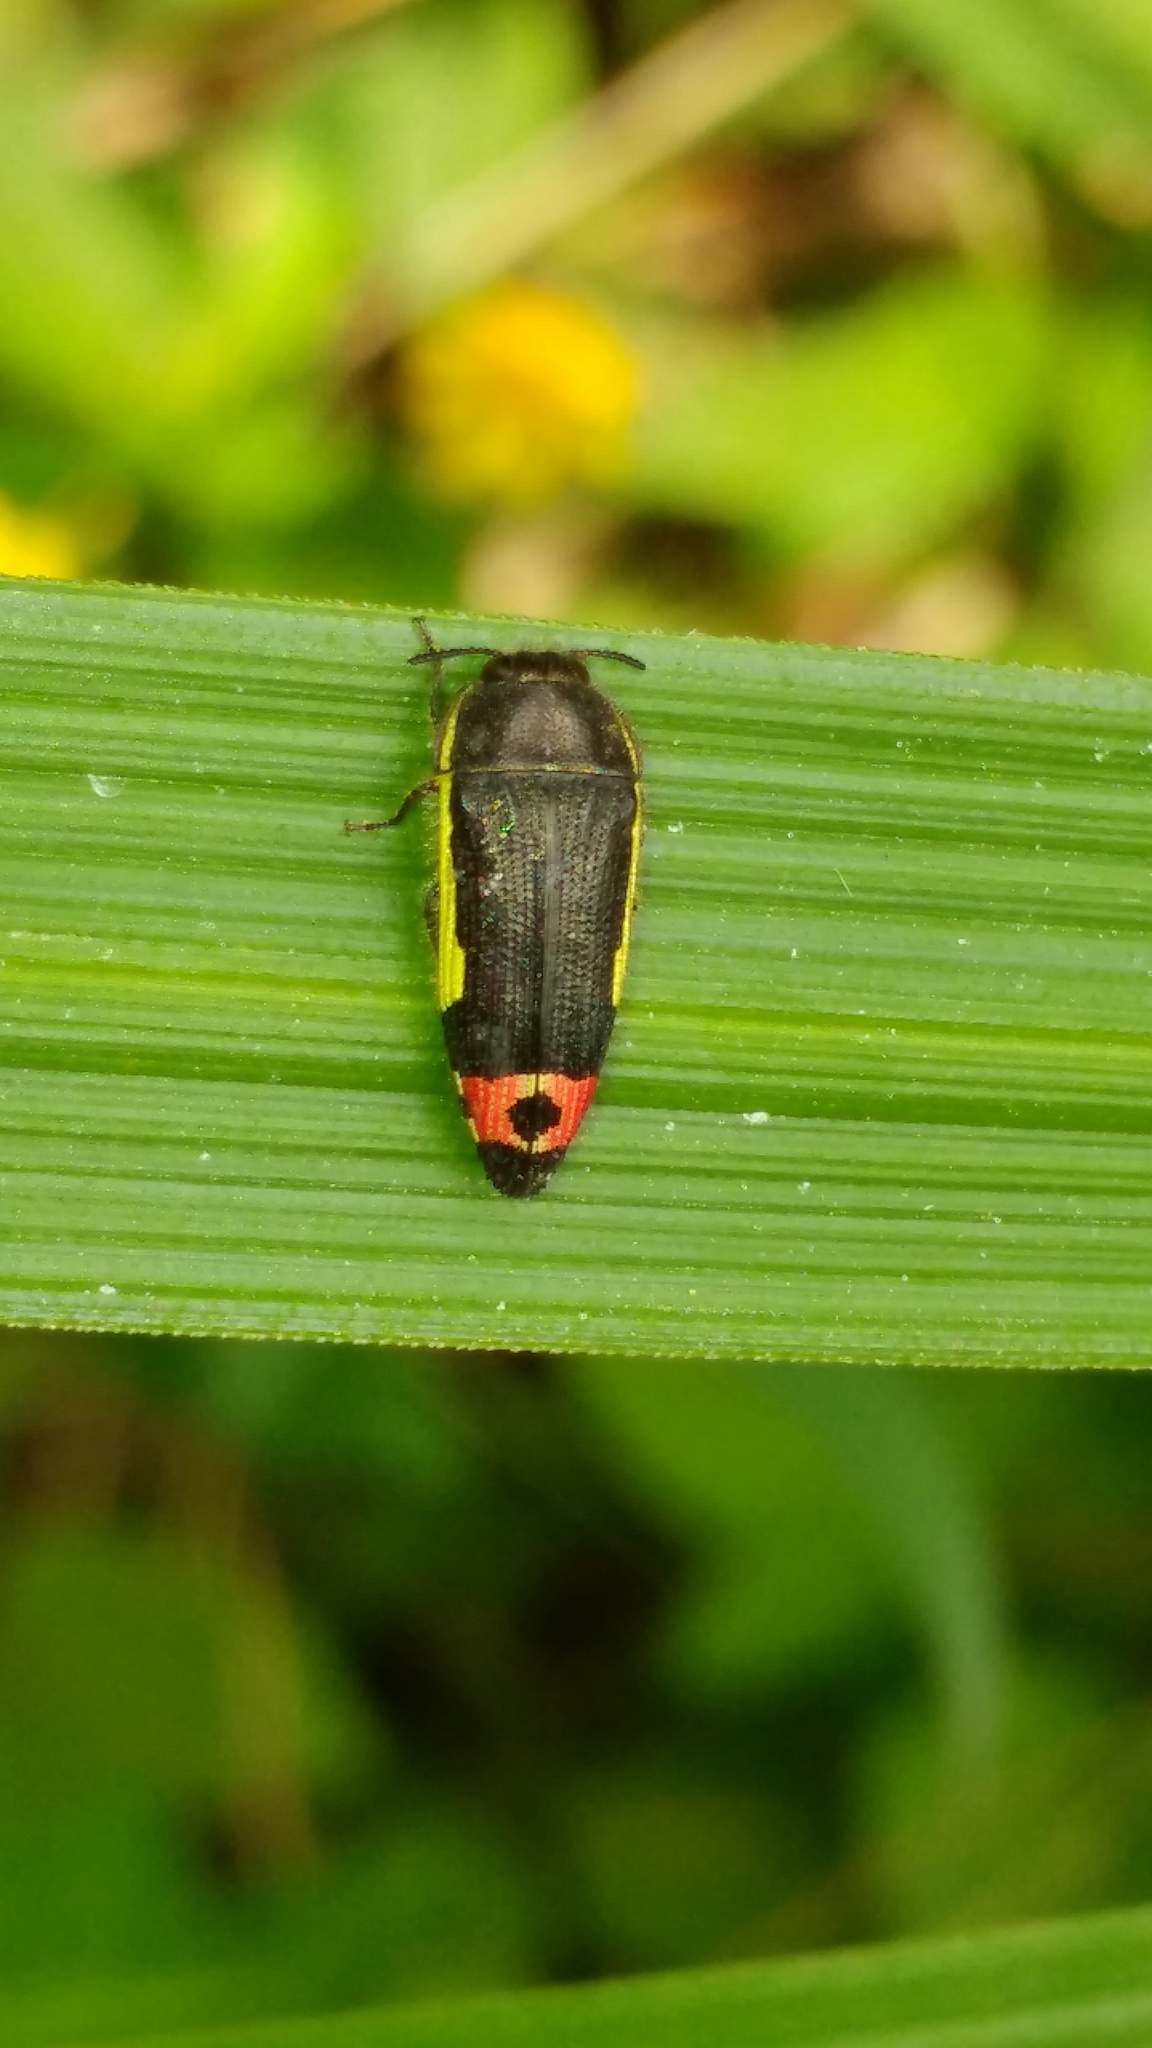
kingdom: Animalia
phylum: Arthropoda
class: Insecta
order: Coleoptera
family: Buprestidae
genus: Acmaeodera
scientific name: Acmaeodera flavomarginata
